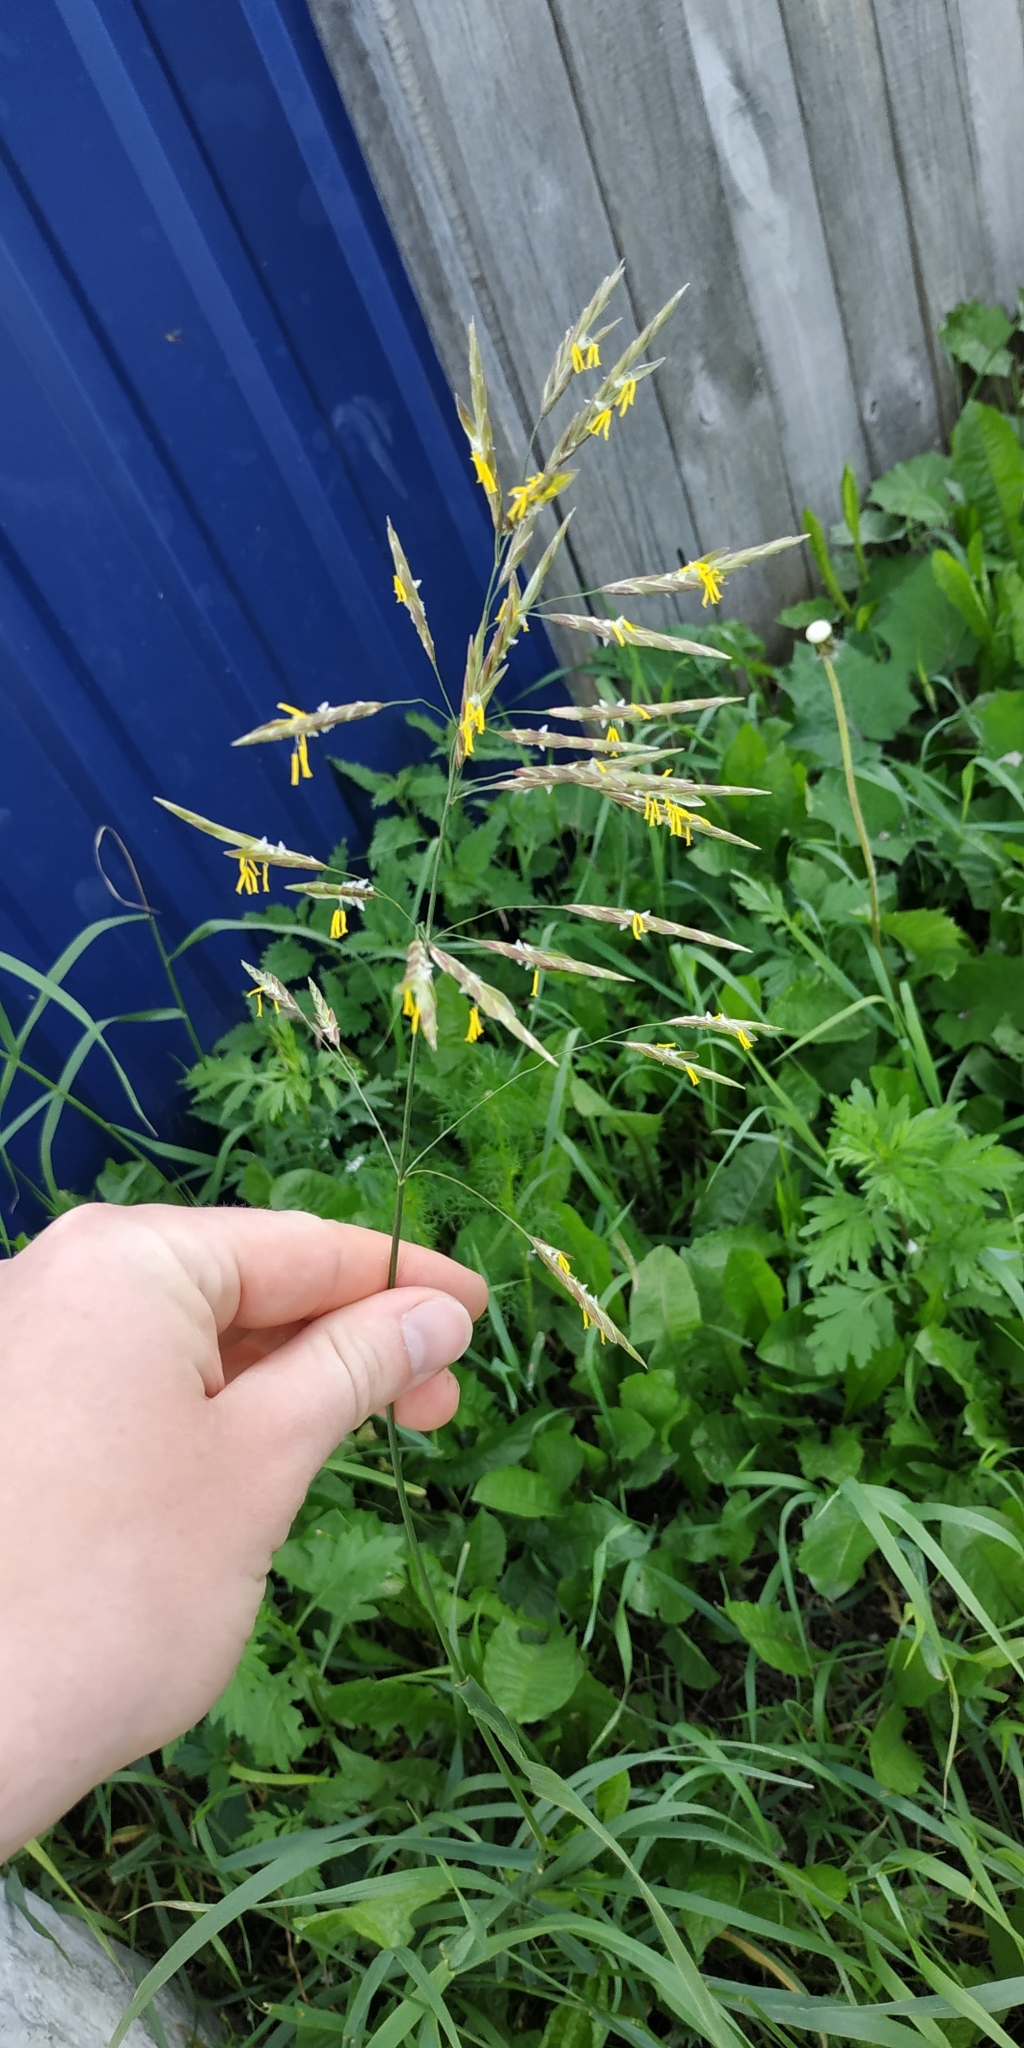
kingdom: Plantae
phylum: Tracheophyta
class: Liliopsida
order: Poales
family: Poaceae
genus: Bromus
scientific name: Bromus inermis
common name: Smooth brome
